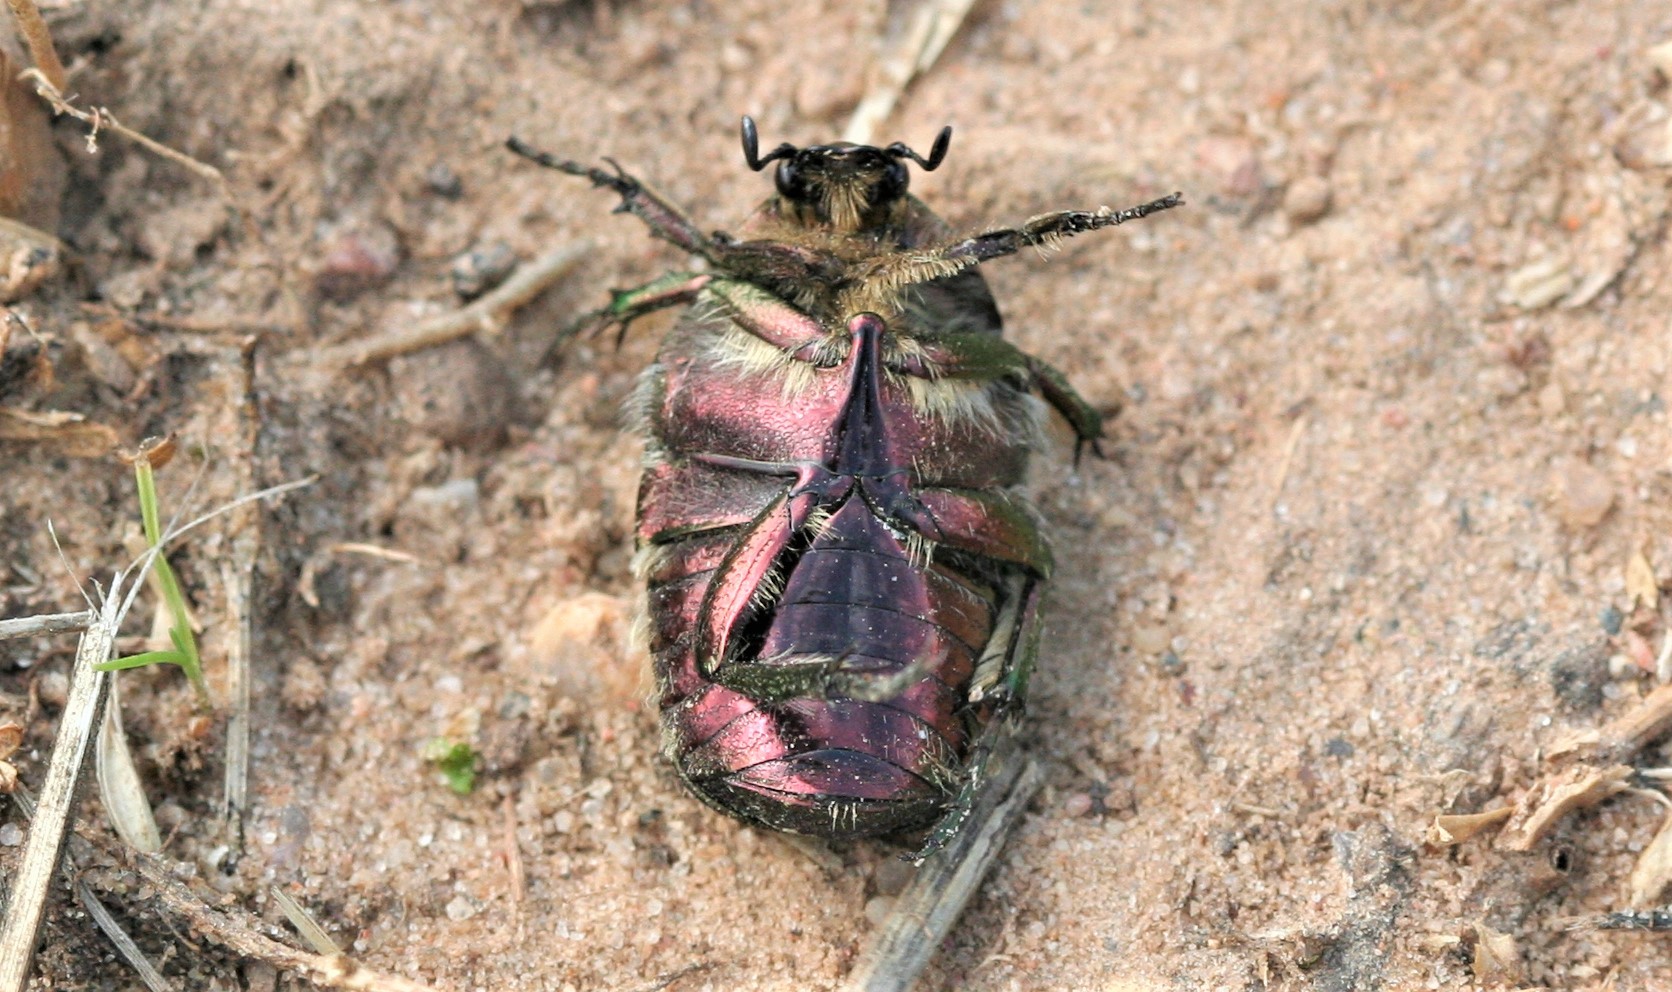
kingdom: Animalia
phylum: Arthropoda
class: Insecta
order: Coleoptera
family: Scarabaeidae
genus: Cetonia
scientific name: Cetonia aurata
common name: Rose chafer
